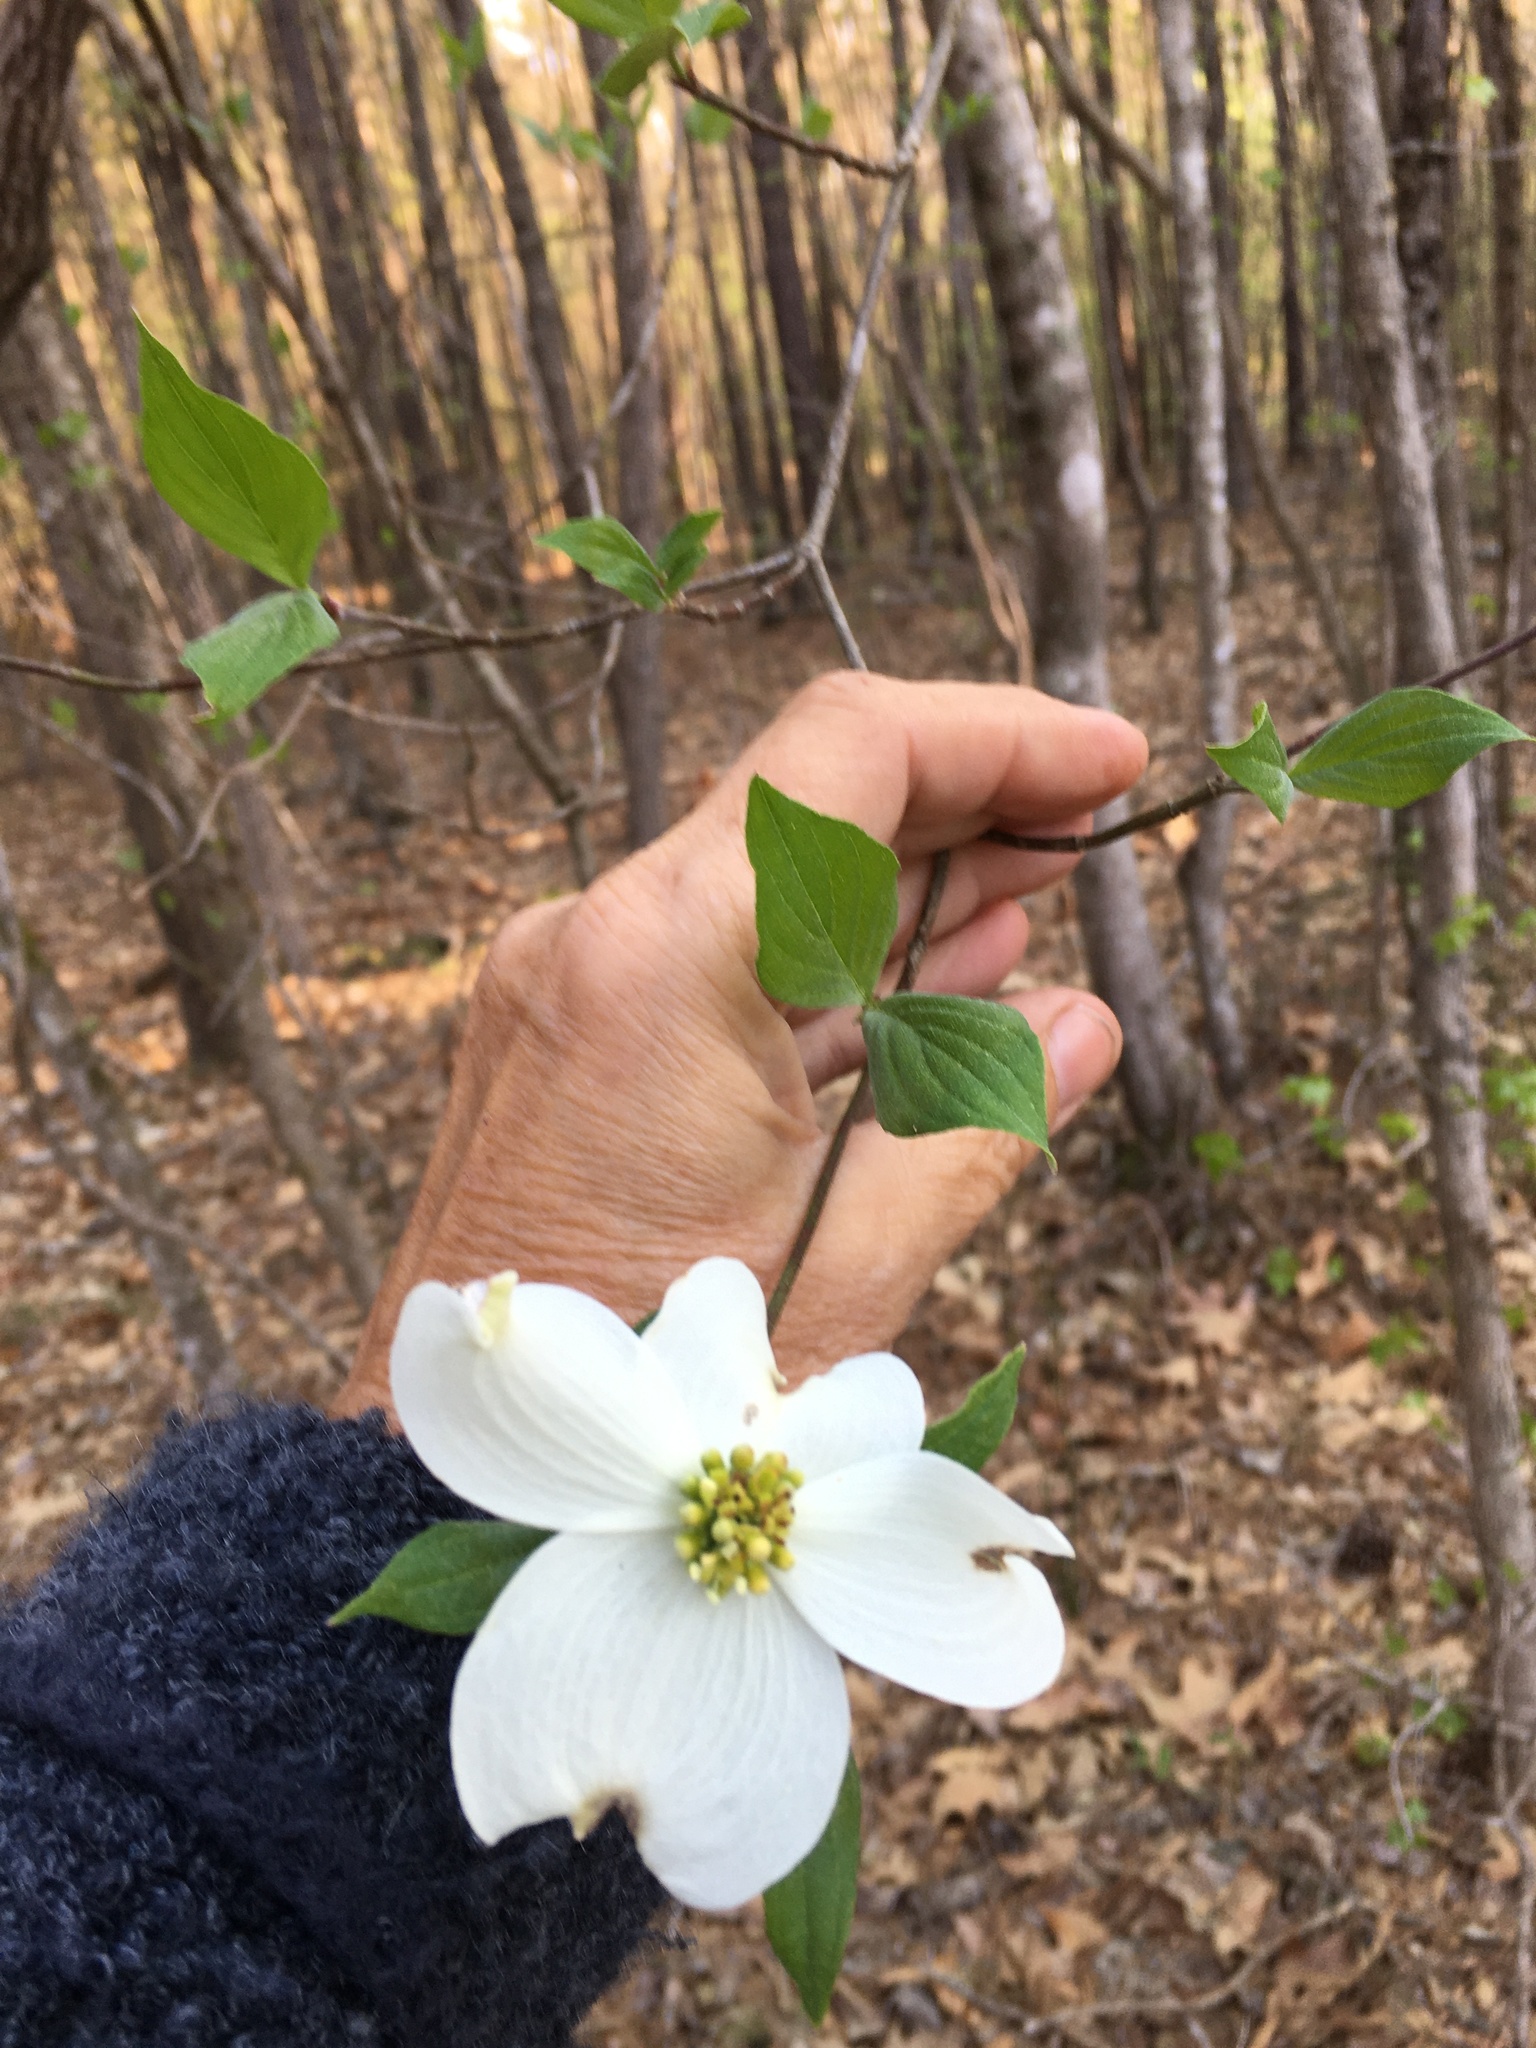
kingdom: Plantae
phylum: Tracheophyta
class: Magnoliopsida
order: Cornales
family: Cornaceae
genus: Cornus
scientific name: Cornus florida
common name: Flowering dogwood
